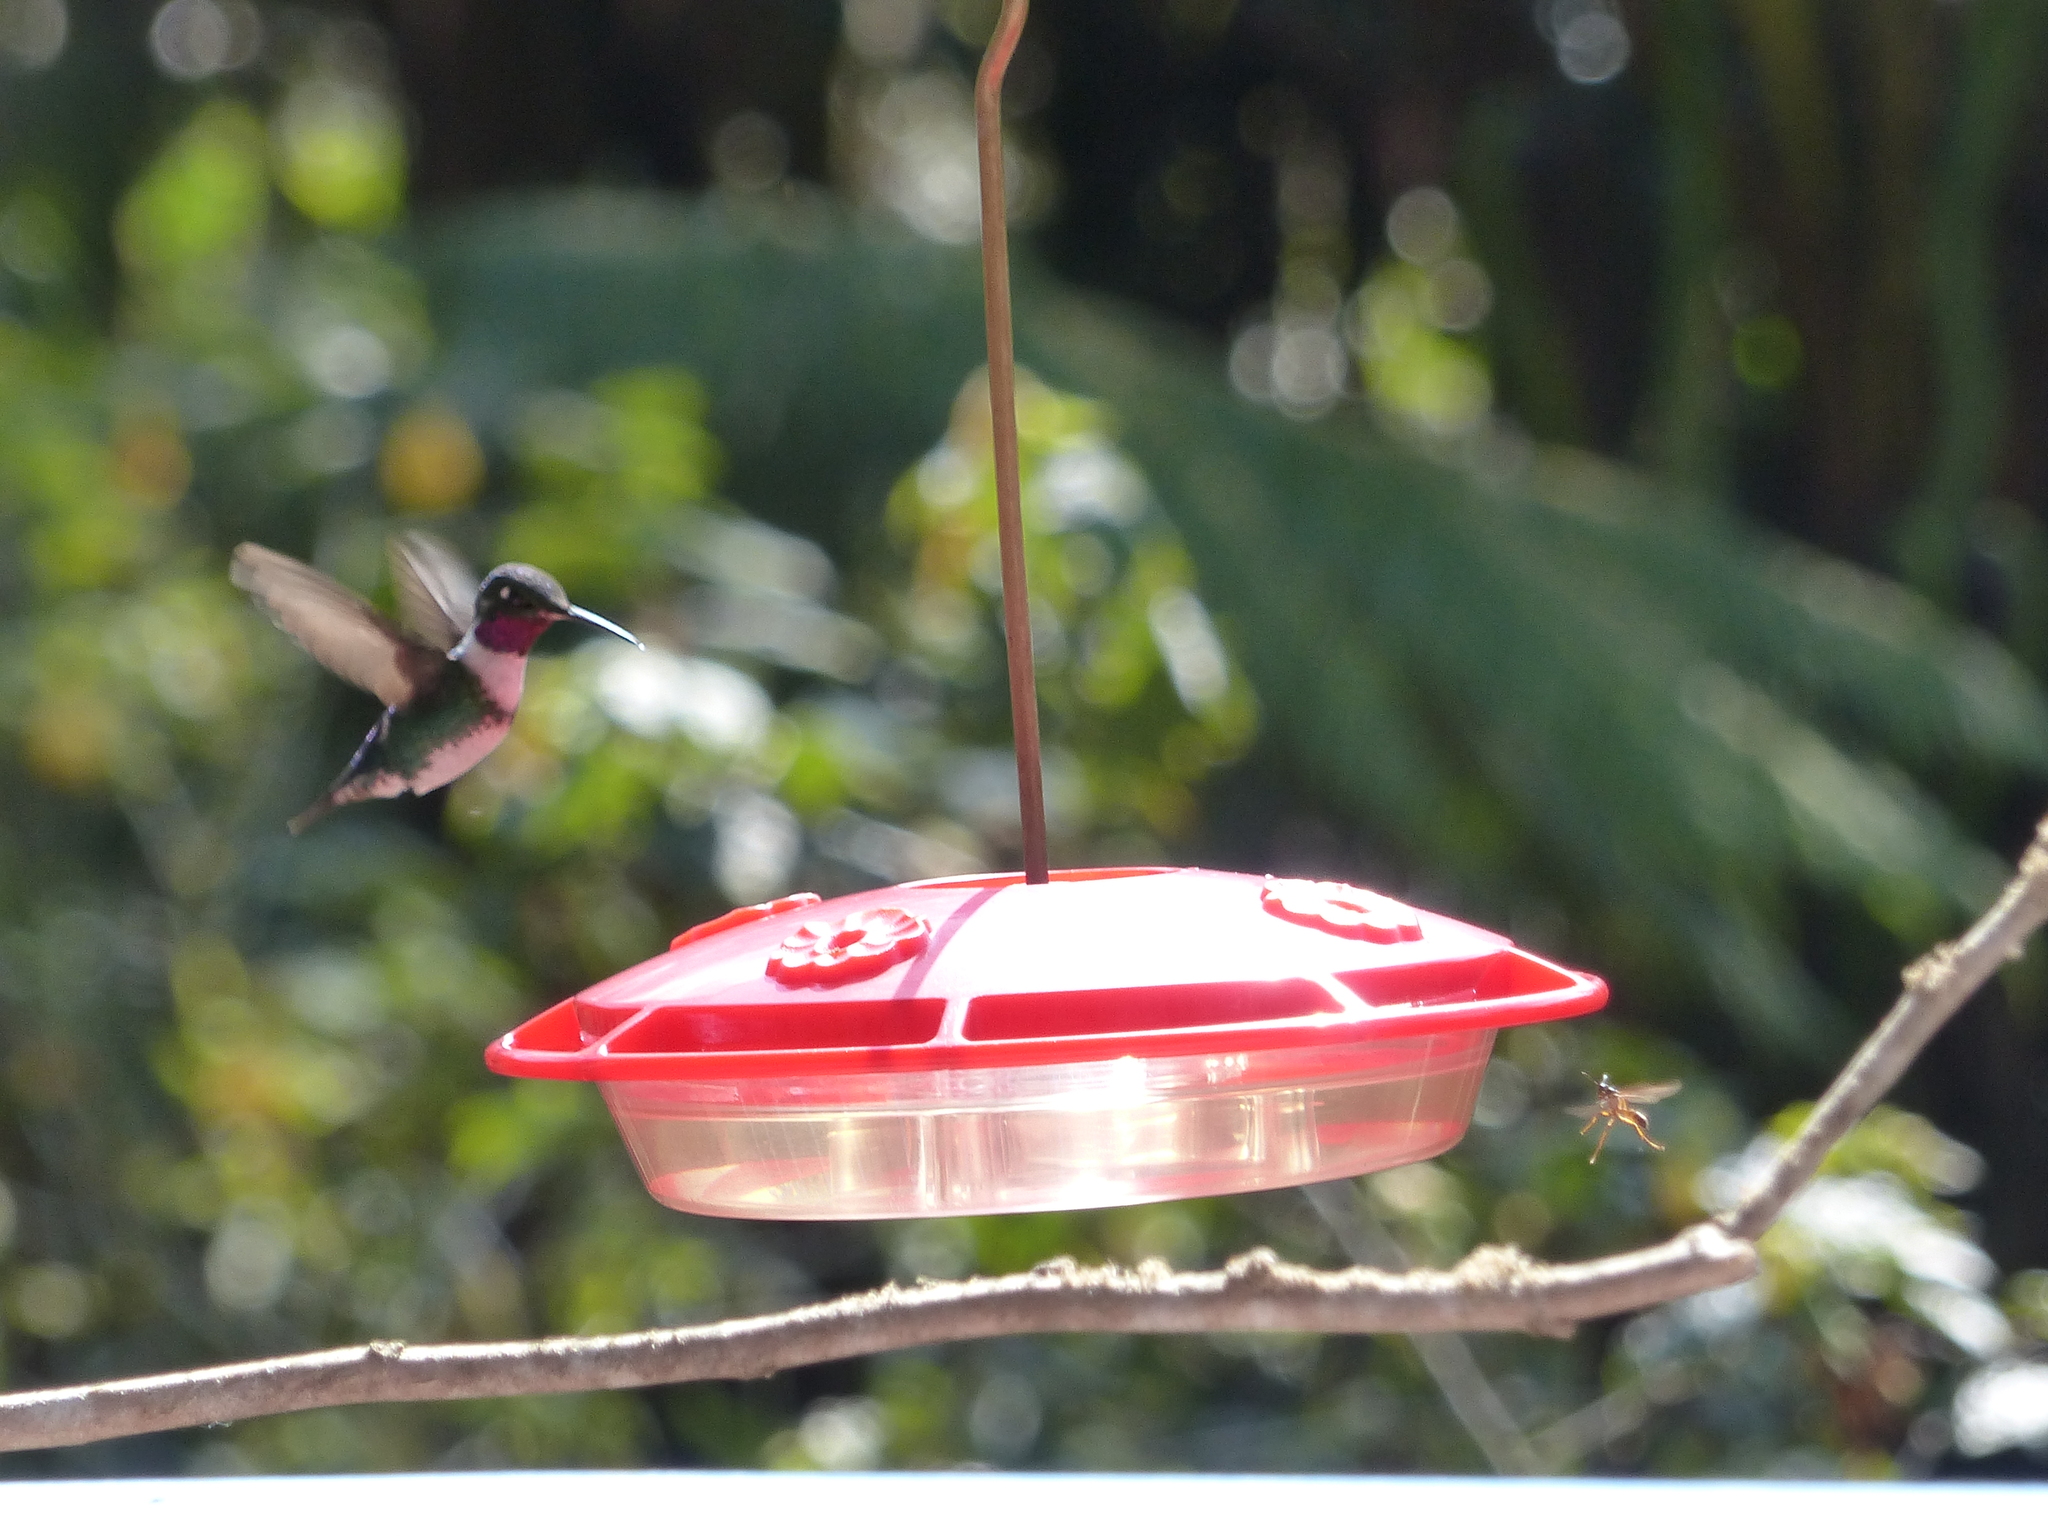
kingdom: Animalia
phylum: Chordata
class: Aves
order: Apodiformes
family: Trochilidae
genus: Chaetocercus
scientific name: Chaetocercus mulsant
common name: White-bellied woodstar
